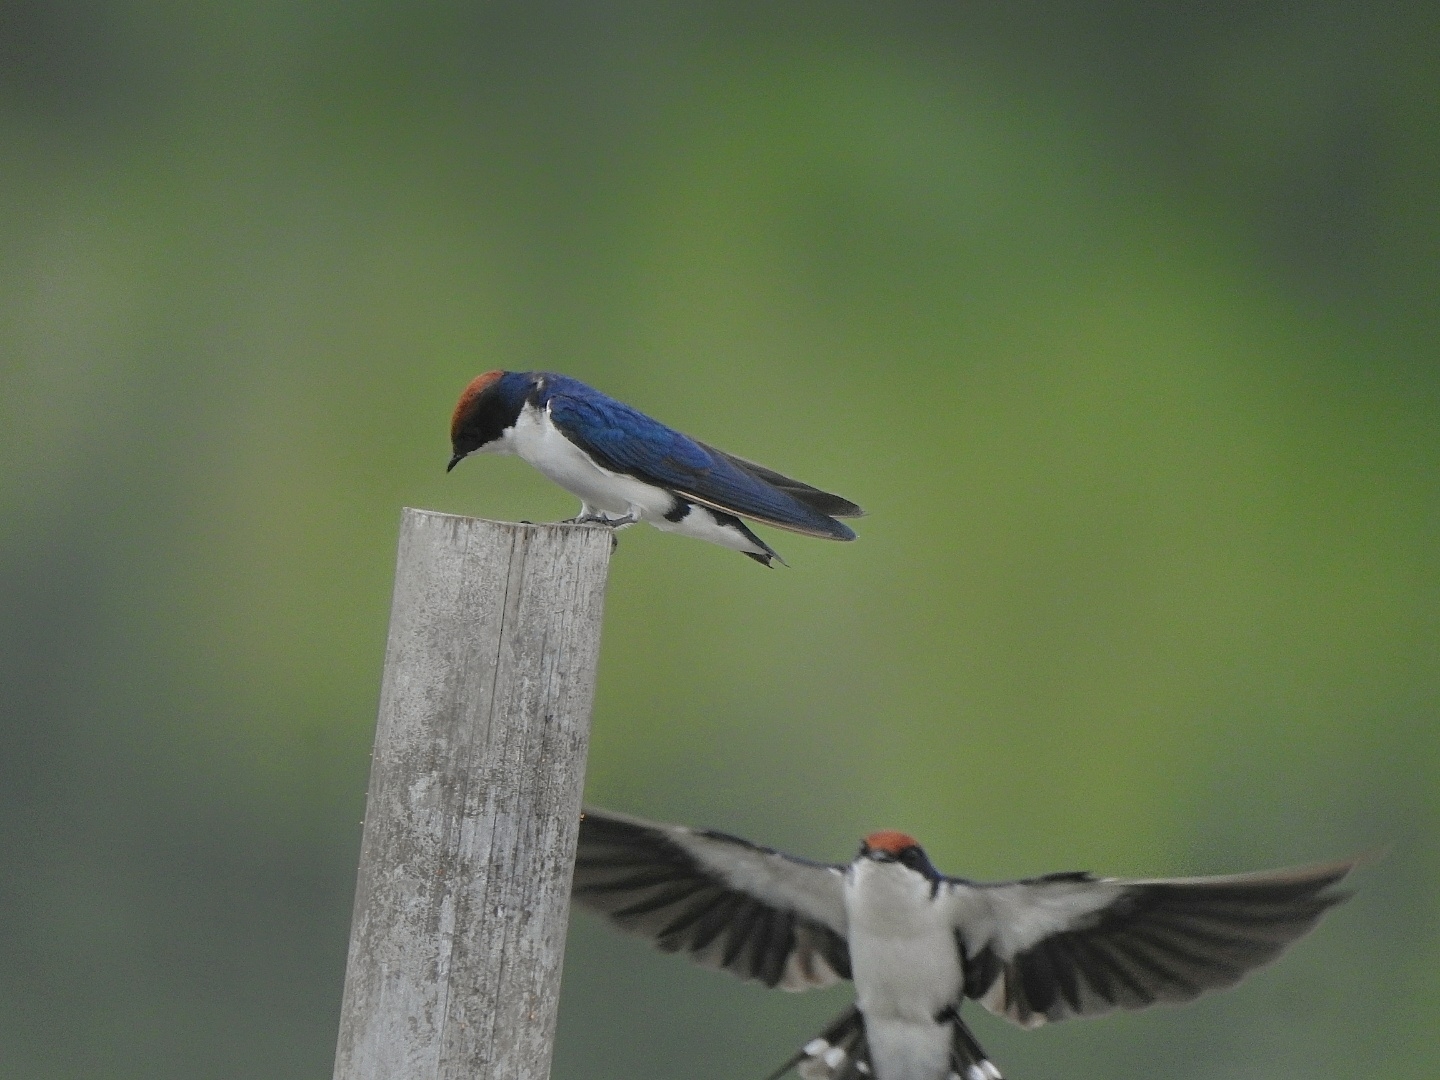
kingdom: Animalia
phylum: Chordata
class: Aves
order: Passeriformes
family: Hirundinidae
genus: Hirundo
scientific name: Hirundo smithii
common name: Wire-tailed swallow
